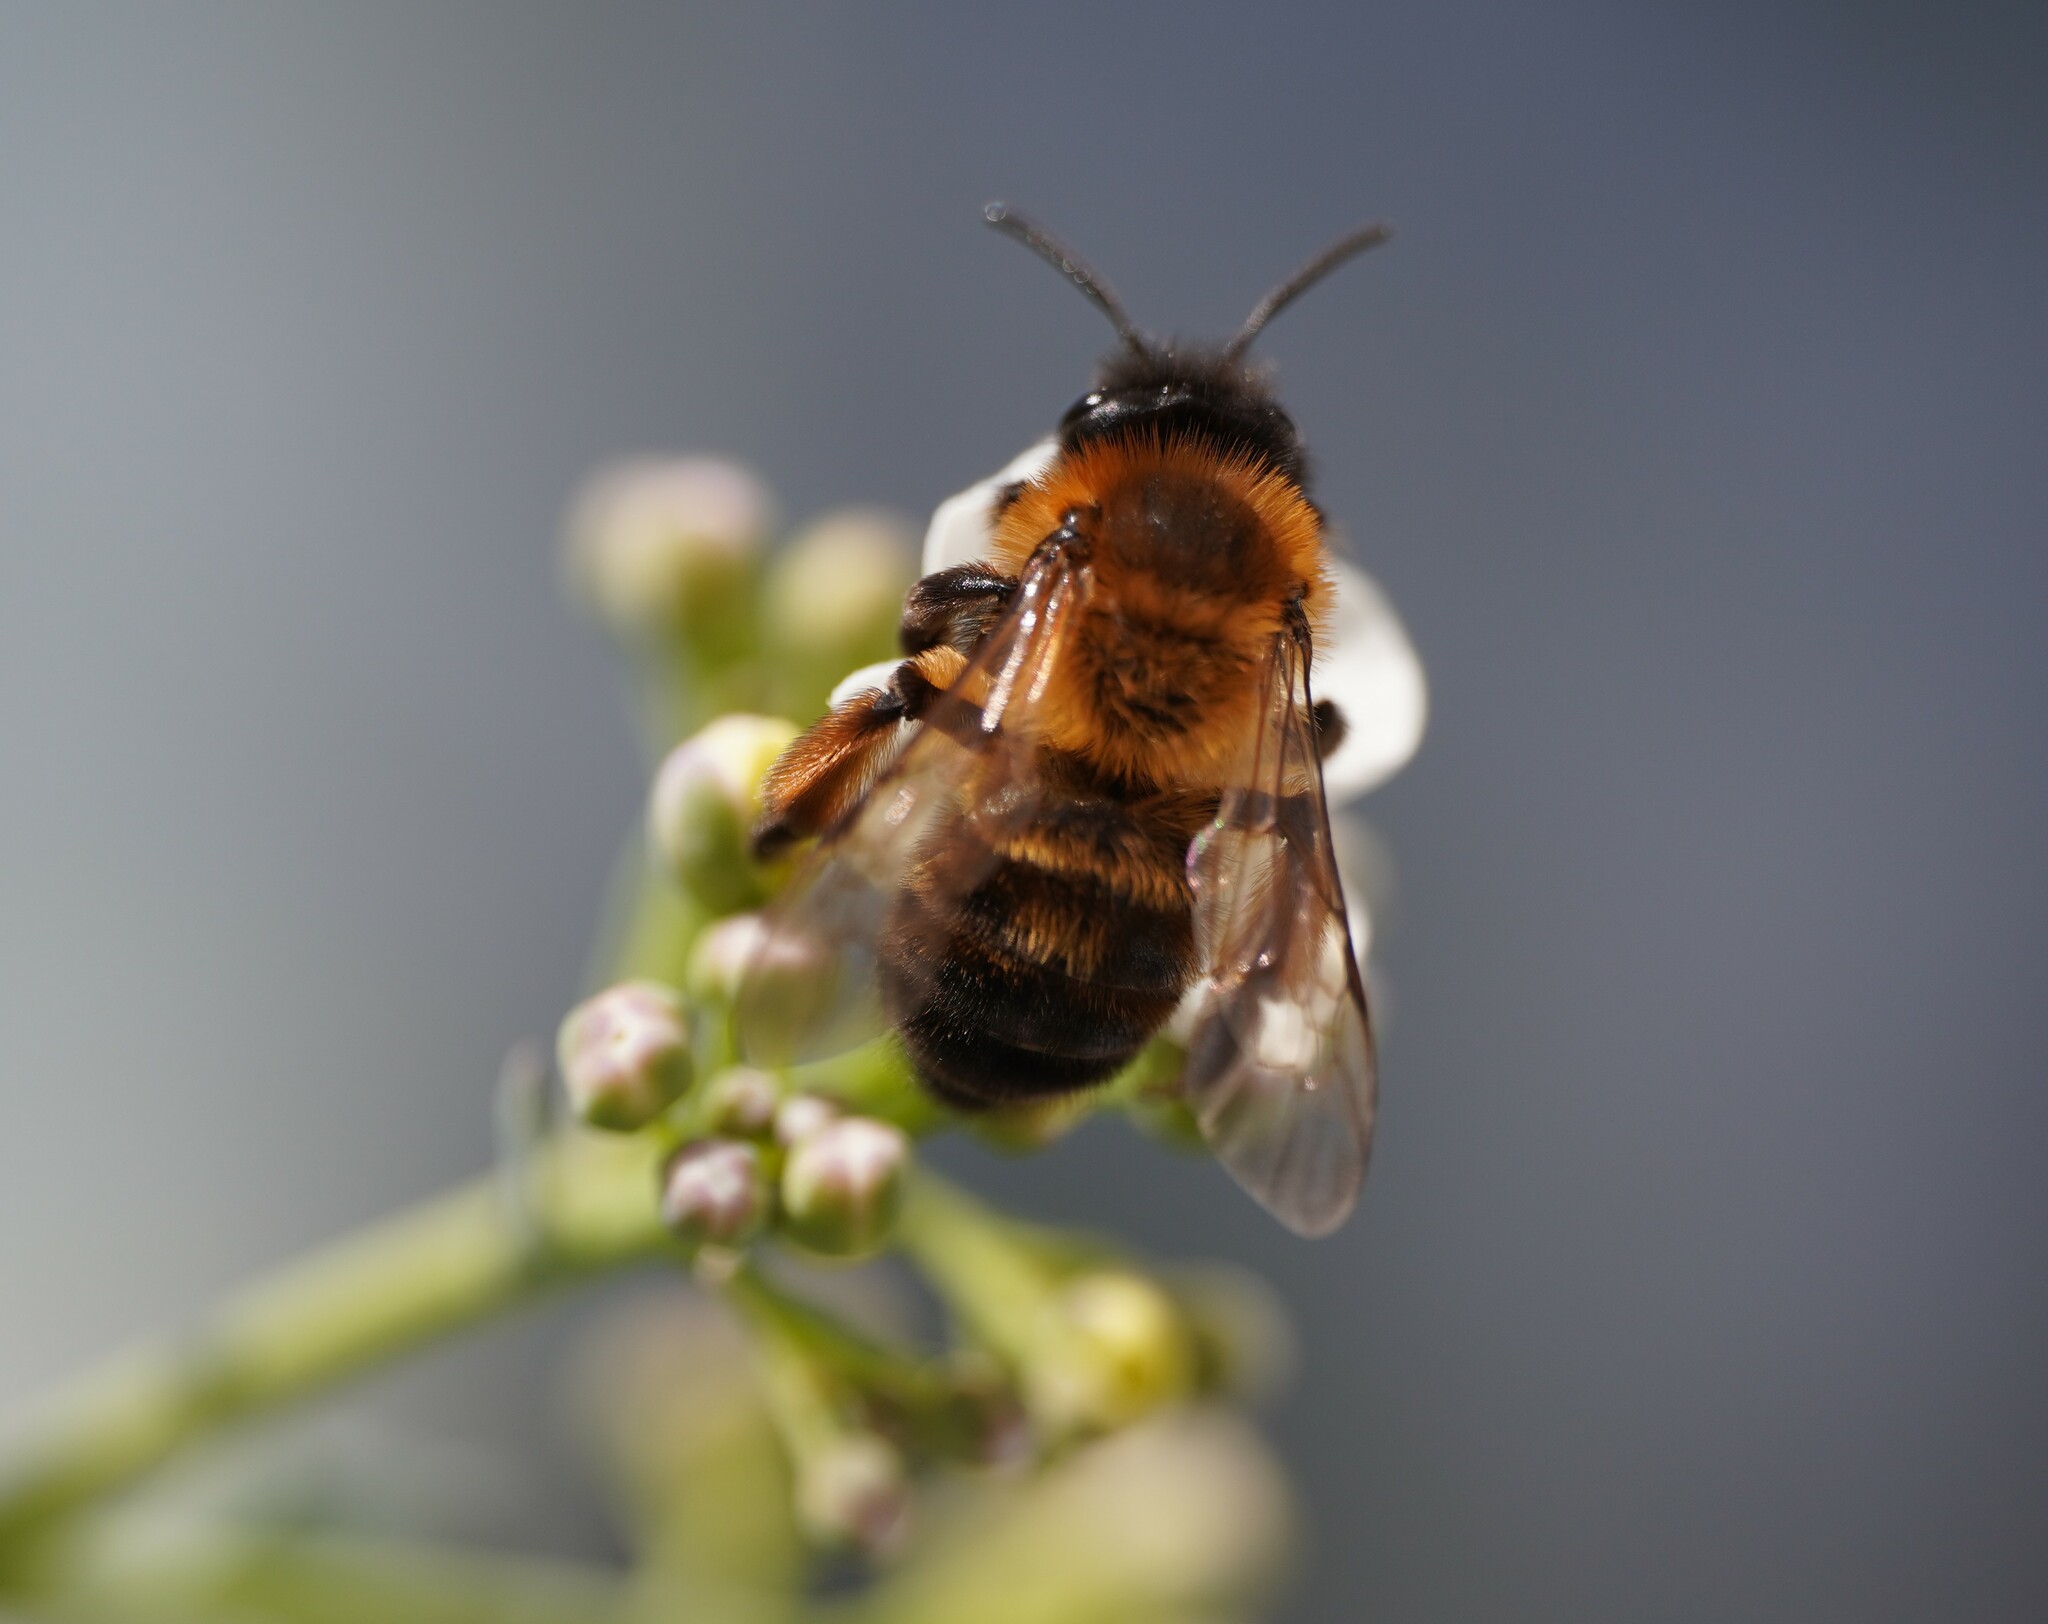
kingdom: Animalia
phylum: Arthropoda
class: Insecta
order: Hymenoptera
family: Andrenidae
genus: Andrena
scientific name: Andrena nigroaenea
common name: Buffish mining bee
